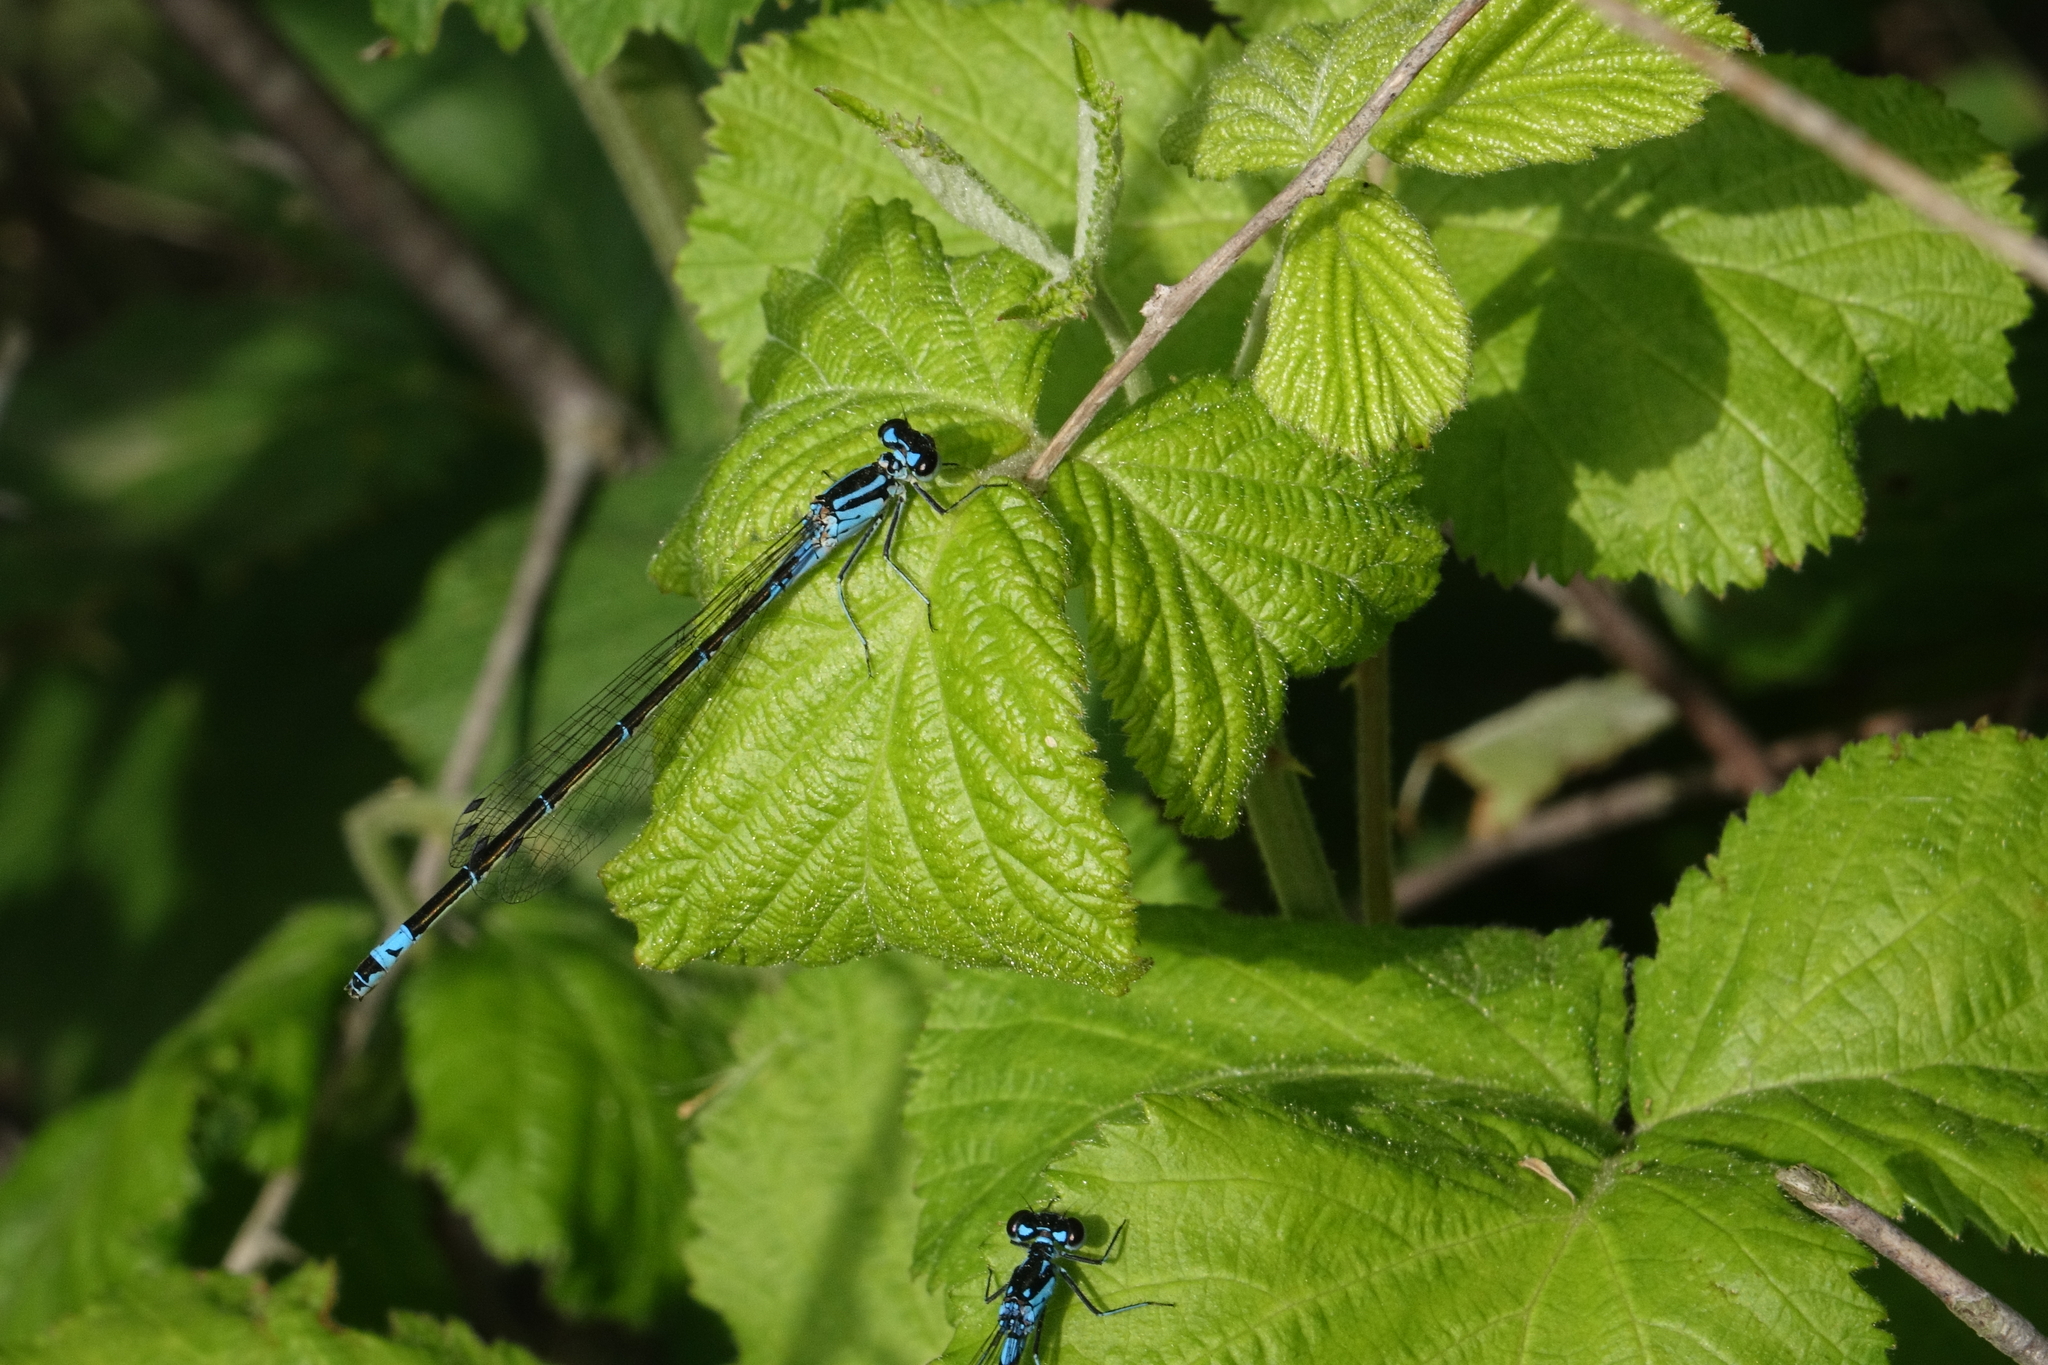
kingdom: Animalia
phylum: Arthropoda
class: Insecta
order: Odonata
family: Coenagrionidae
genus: Coenagrion
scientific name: Coenagrion pulchellum
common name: Variable bluet
